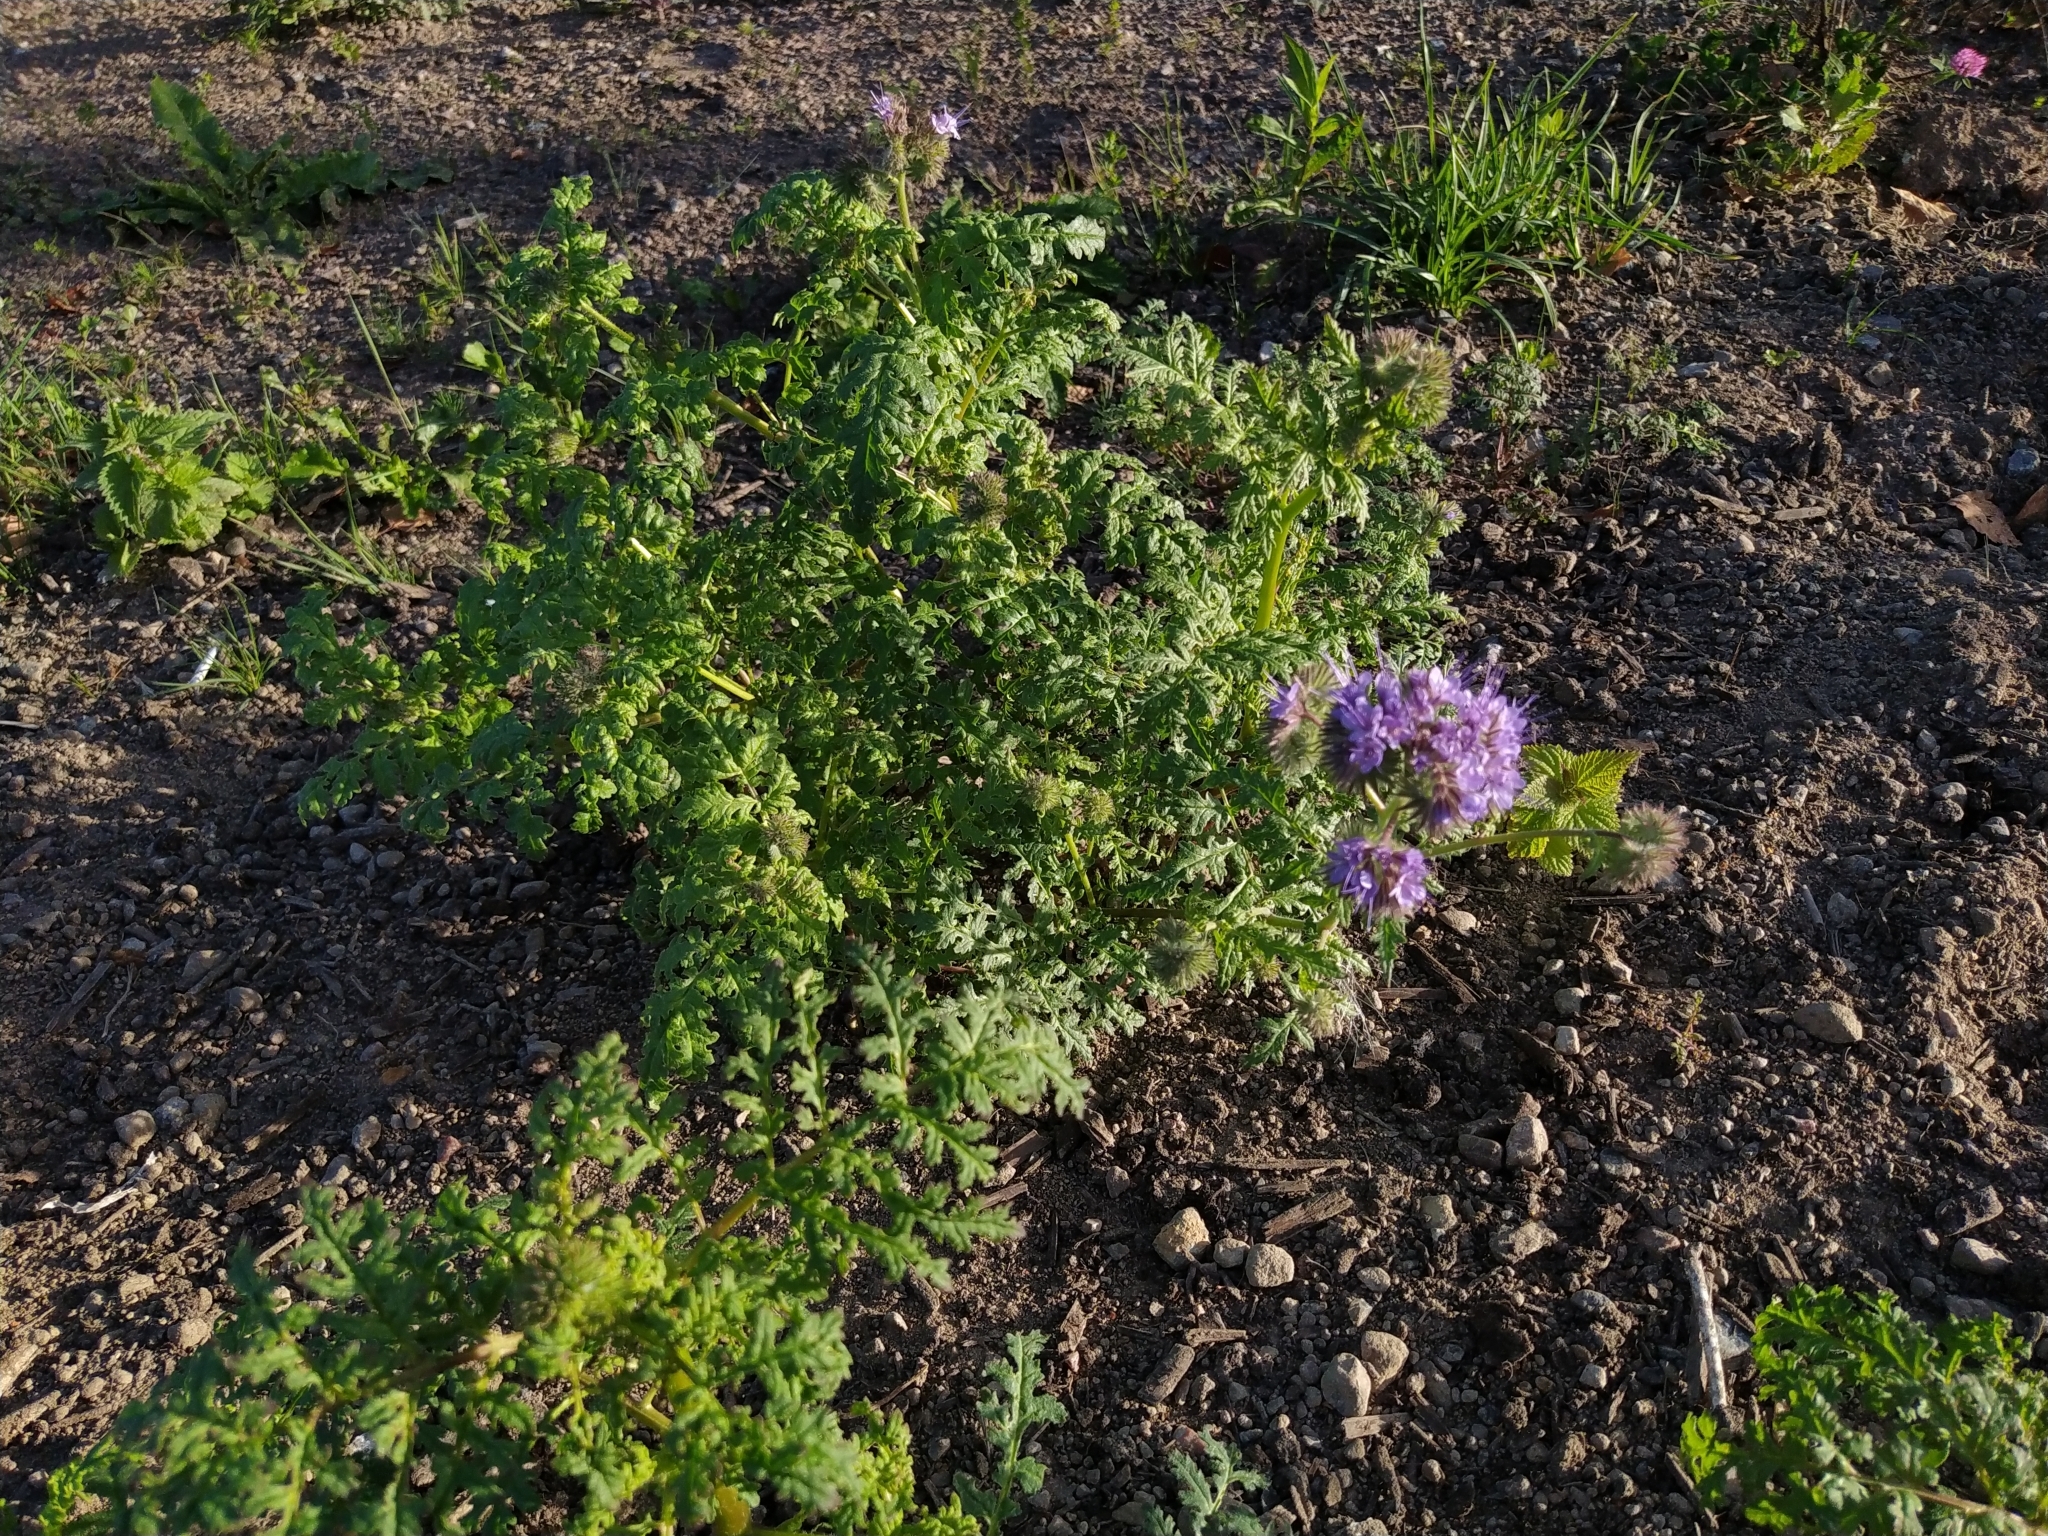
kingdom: Plantae
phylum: Tracheophyta
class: Magnoliopsida
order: Boraginales
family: Hydrophyllaceae
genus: Phacelia
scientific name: Phacelia tanacetifolia
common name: Phacelia
